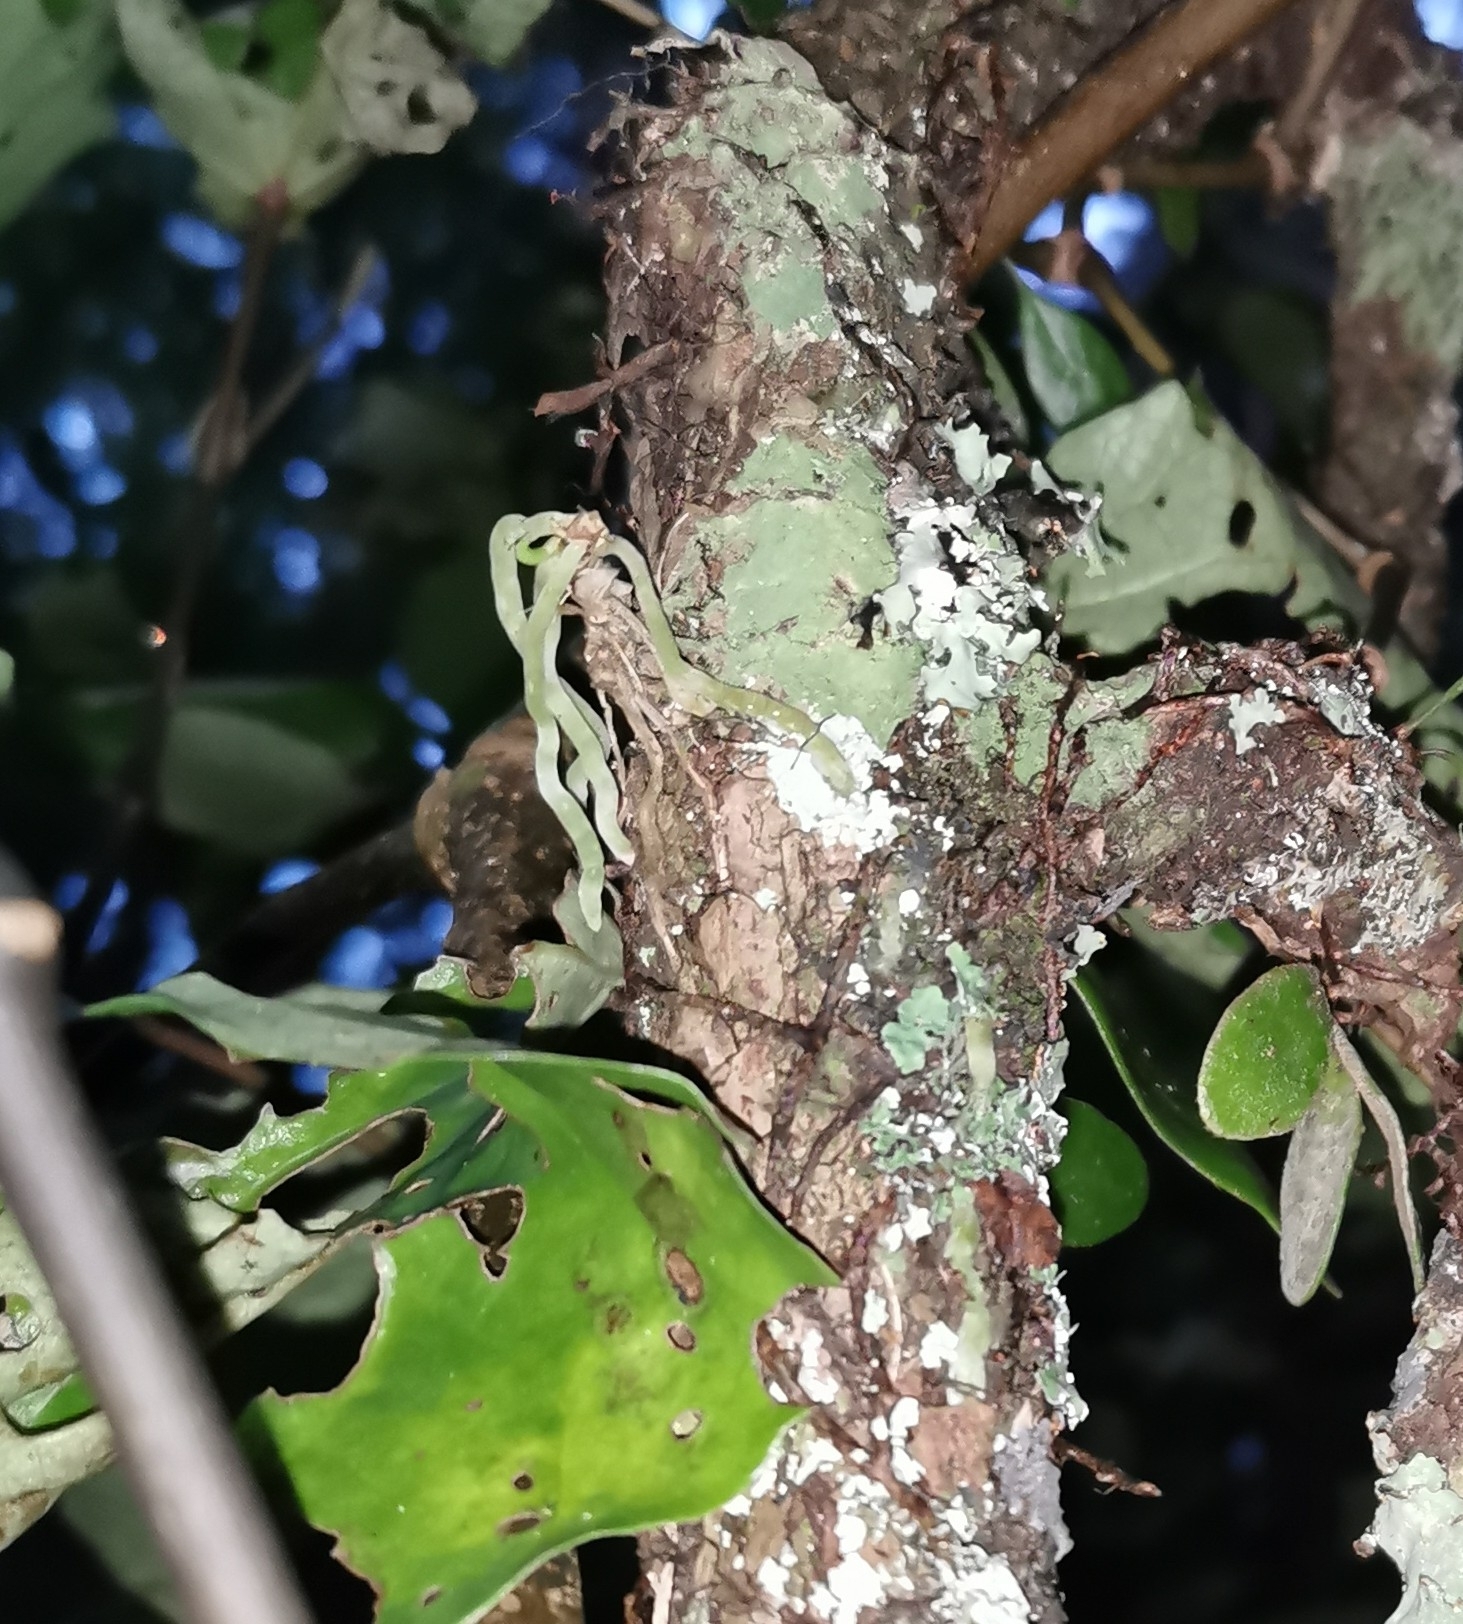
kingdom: Plantae
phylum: Tracheophyta
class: Liliopsida
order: Asparagales
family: Orchidaceae
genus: Drymoanthus
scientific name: Drymoanthus adversus
